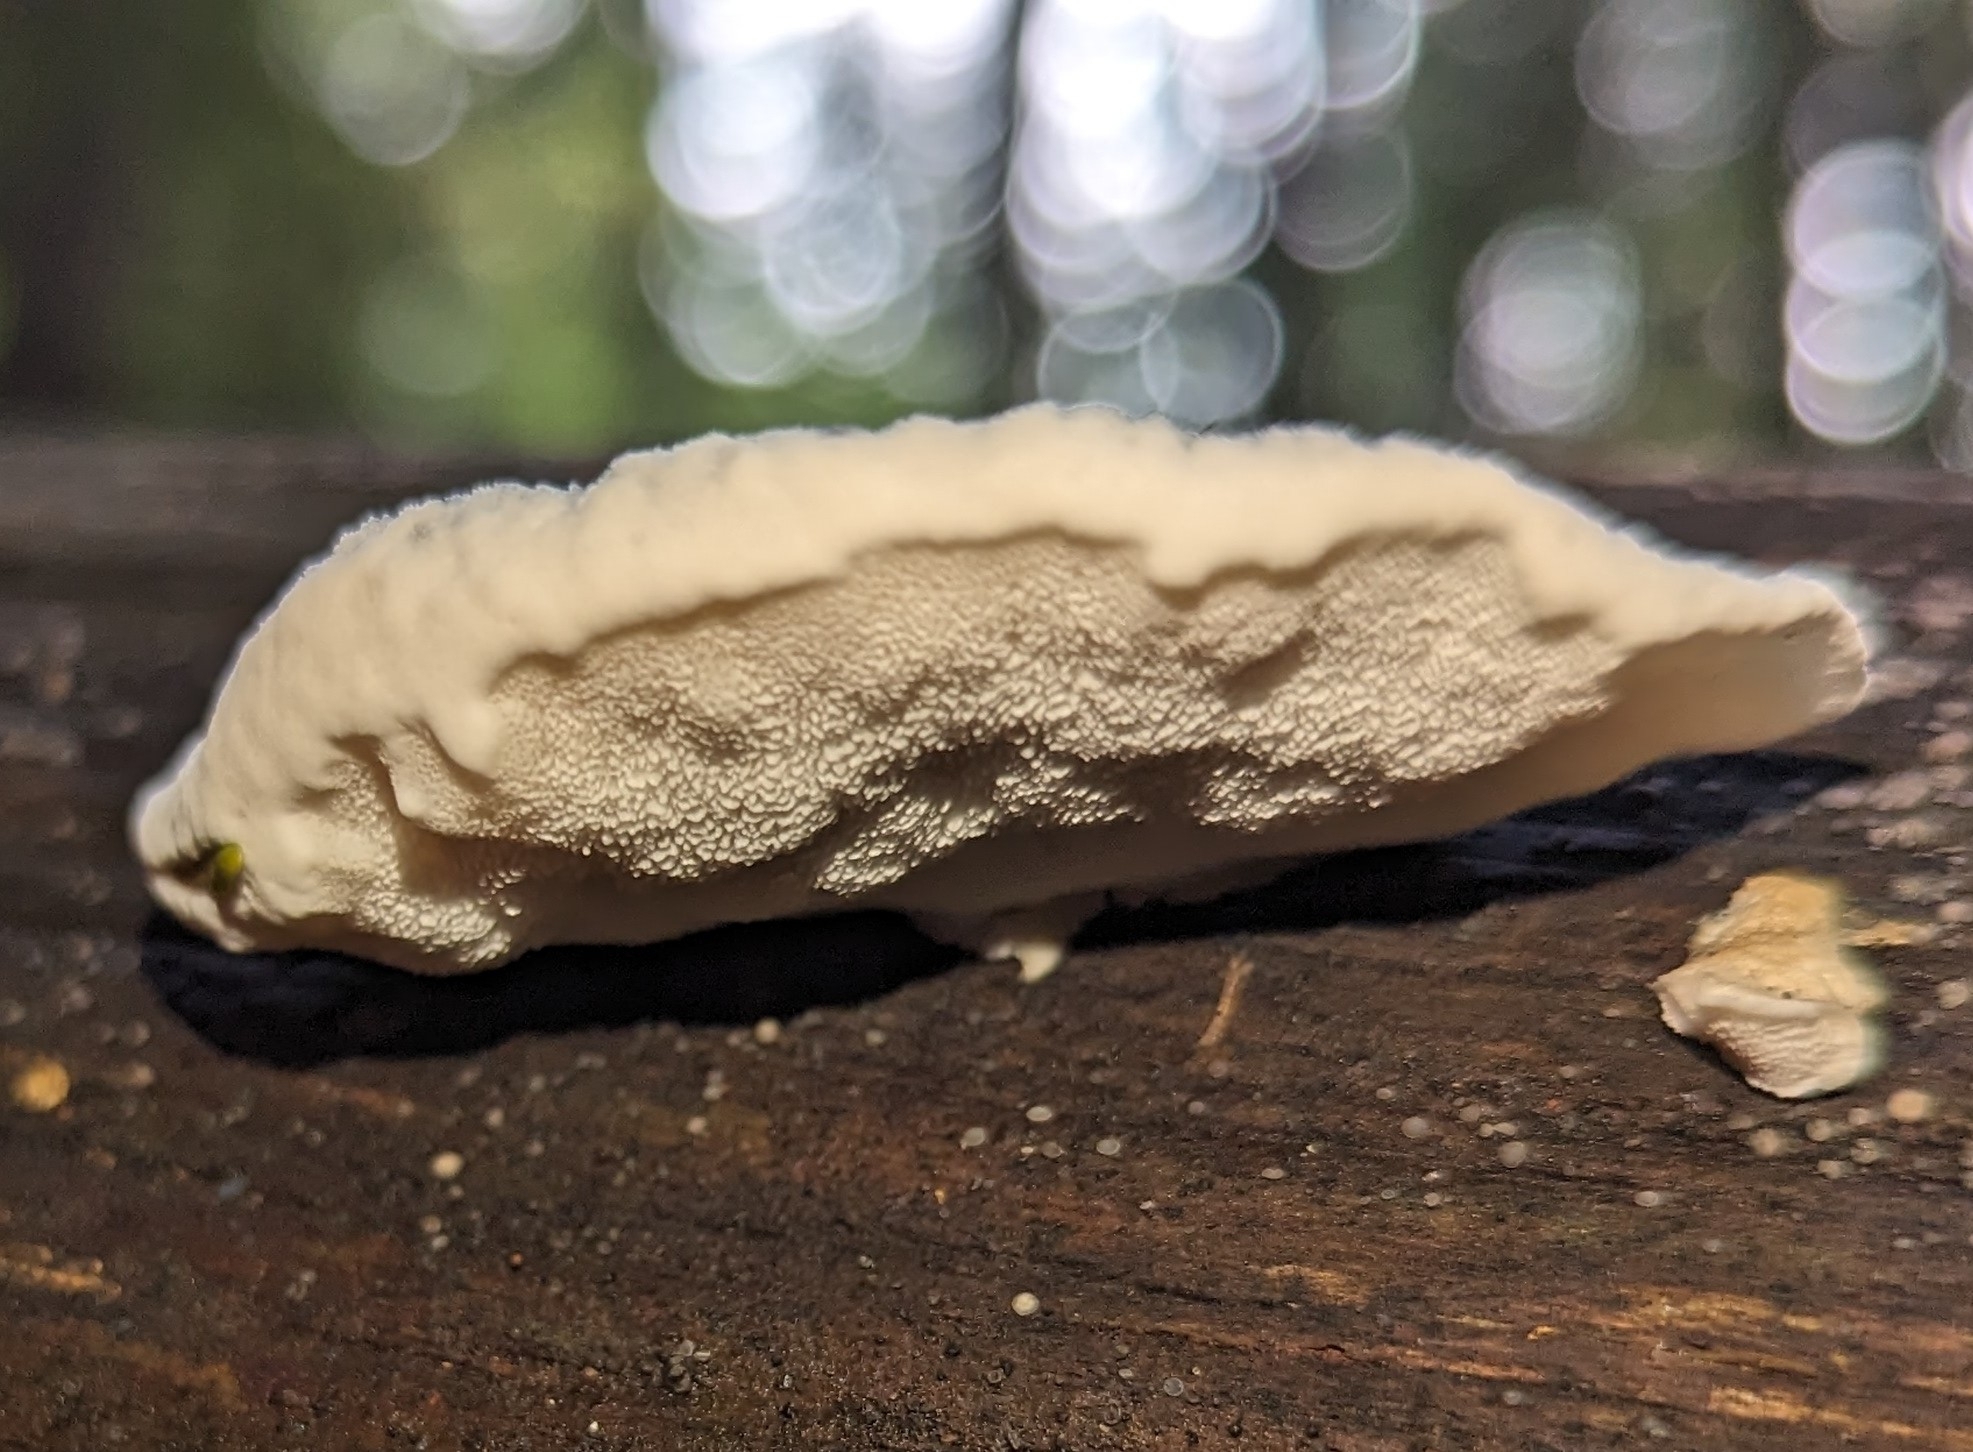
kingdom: Fungi
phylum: Basidiomycota
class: Agaricomycetes
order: Polyporales
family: Polyporaceae
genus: Cyanosporus
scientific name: Cyanosporus caesius
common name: Blue cheese polypore
